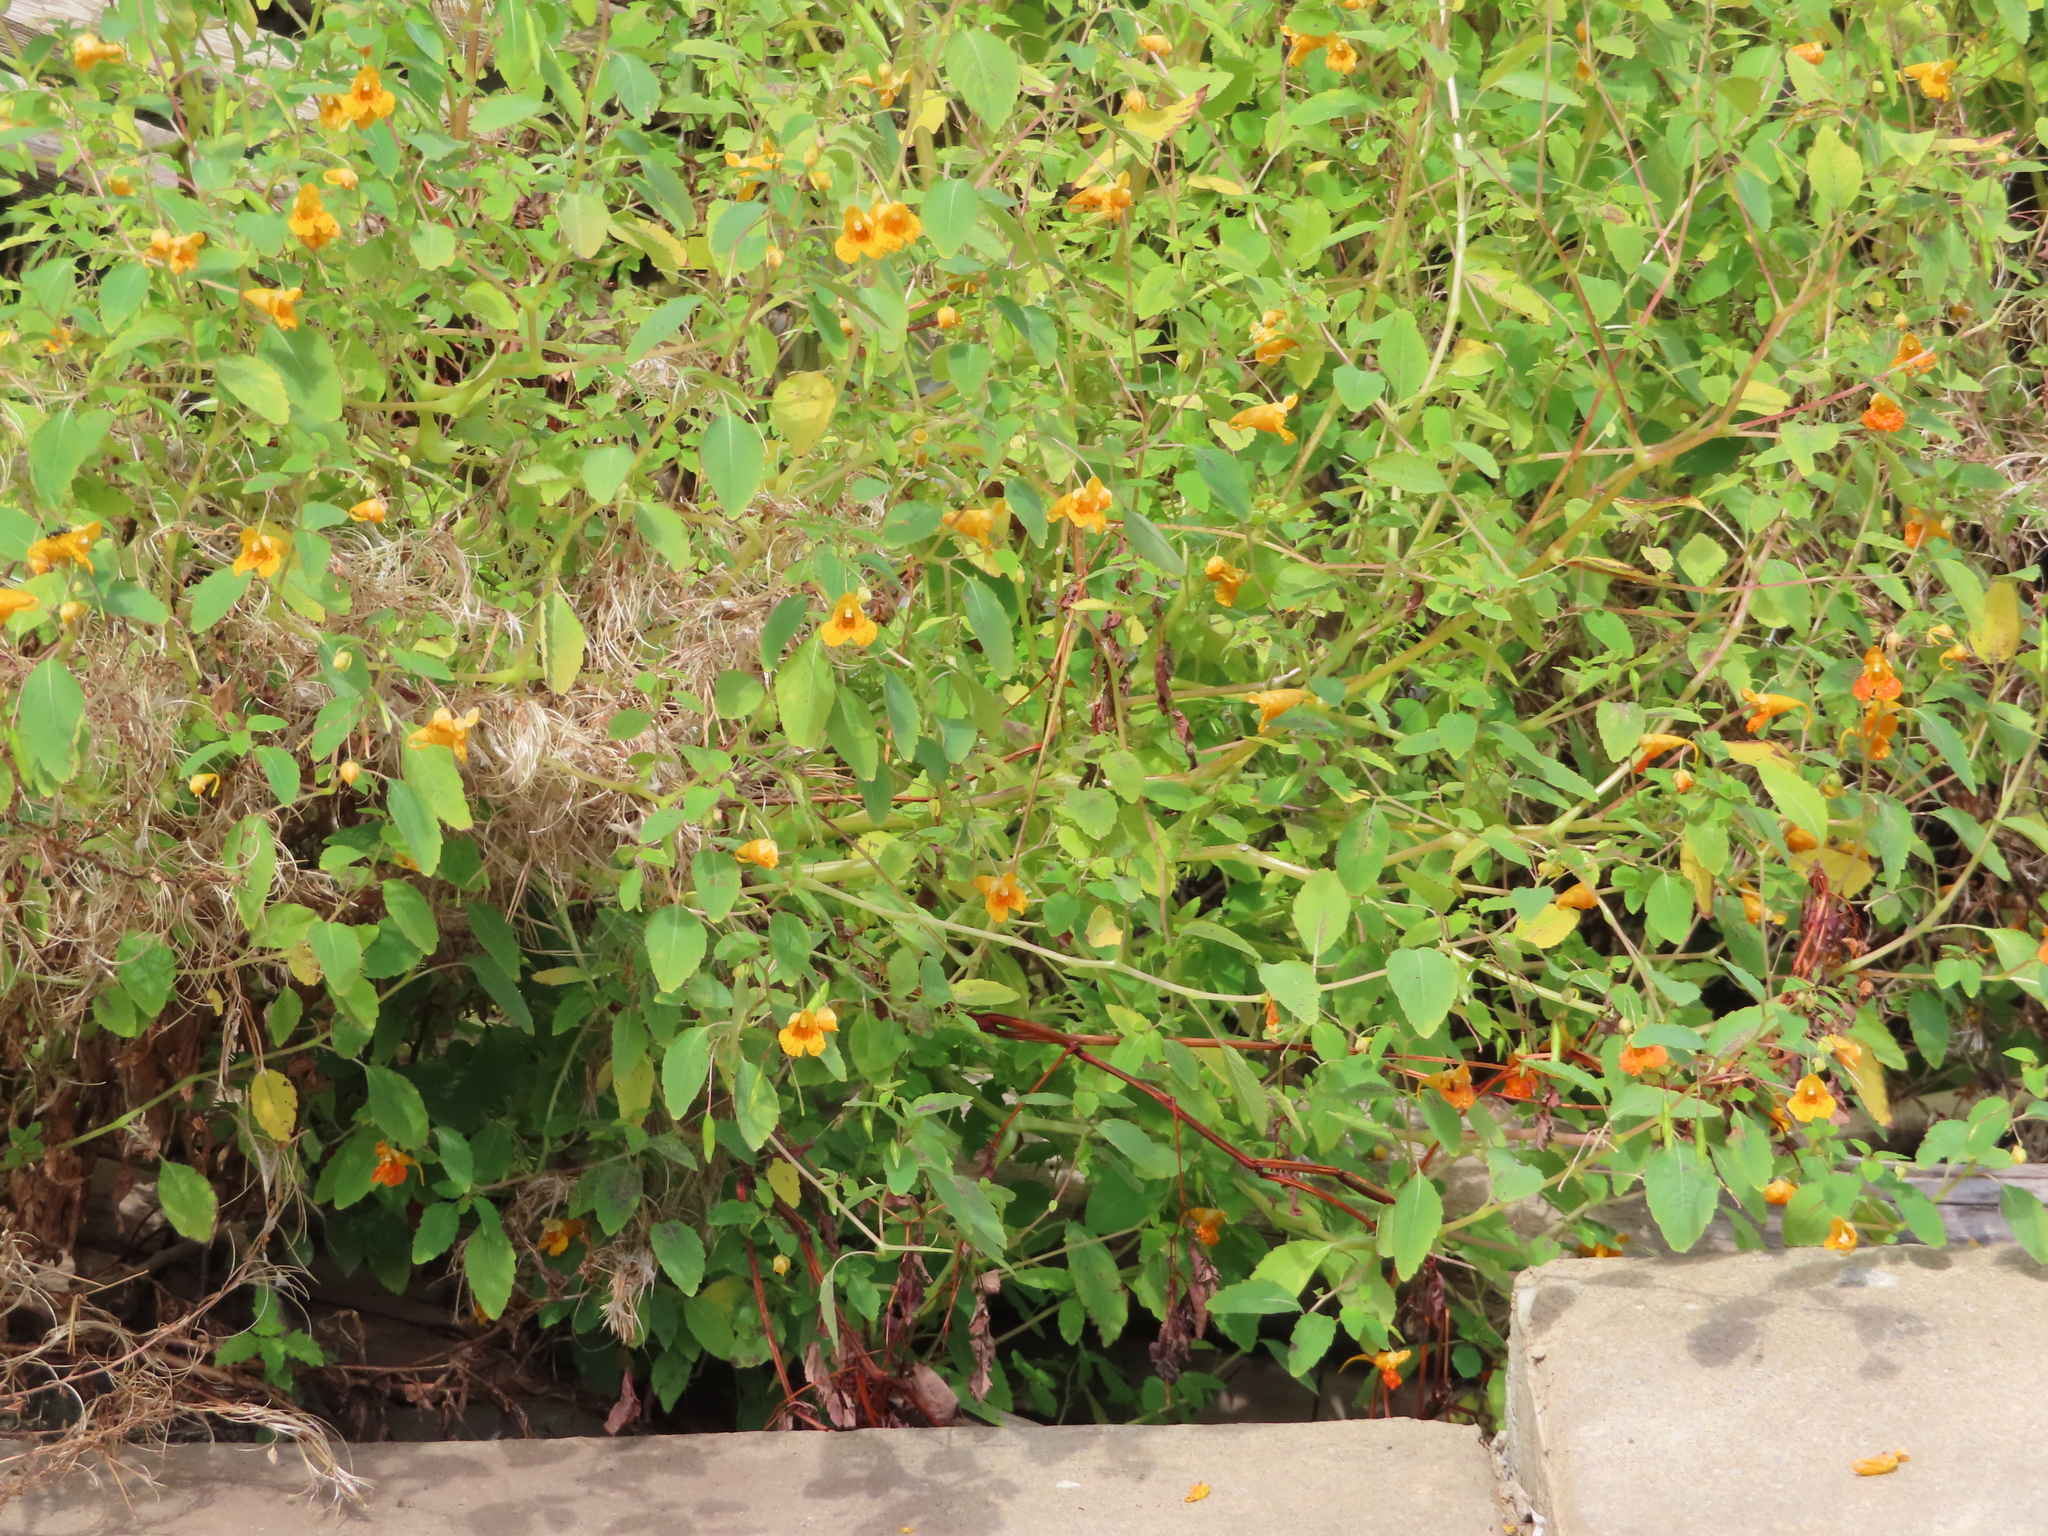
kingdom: Plantae
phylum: Tracheophyta
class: Magnoliopsida
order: Ericales
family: Balsaminaceae
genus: Impatiens
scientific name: Impatiens capensis
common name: Orange balsam
